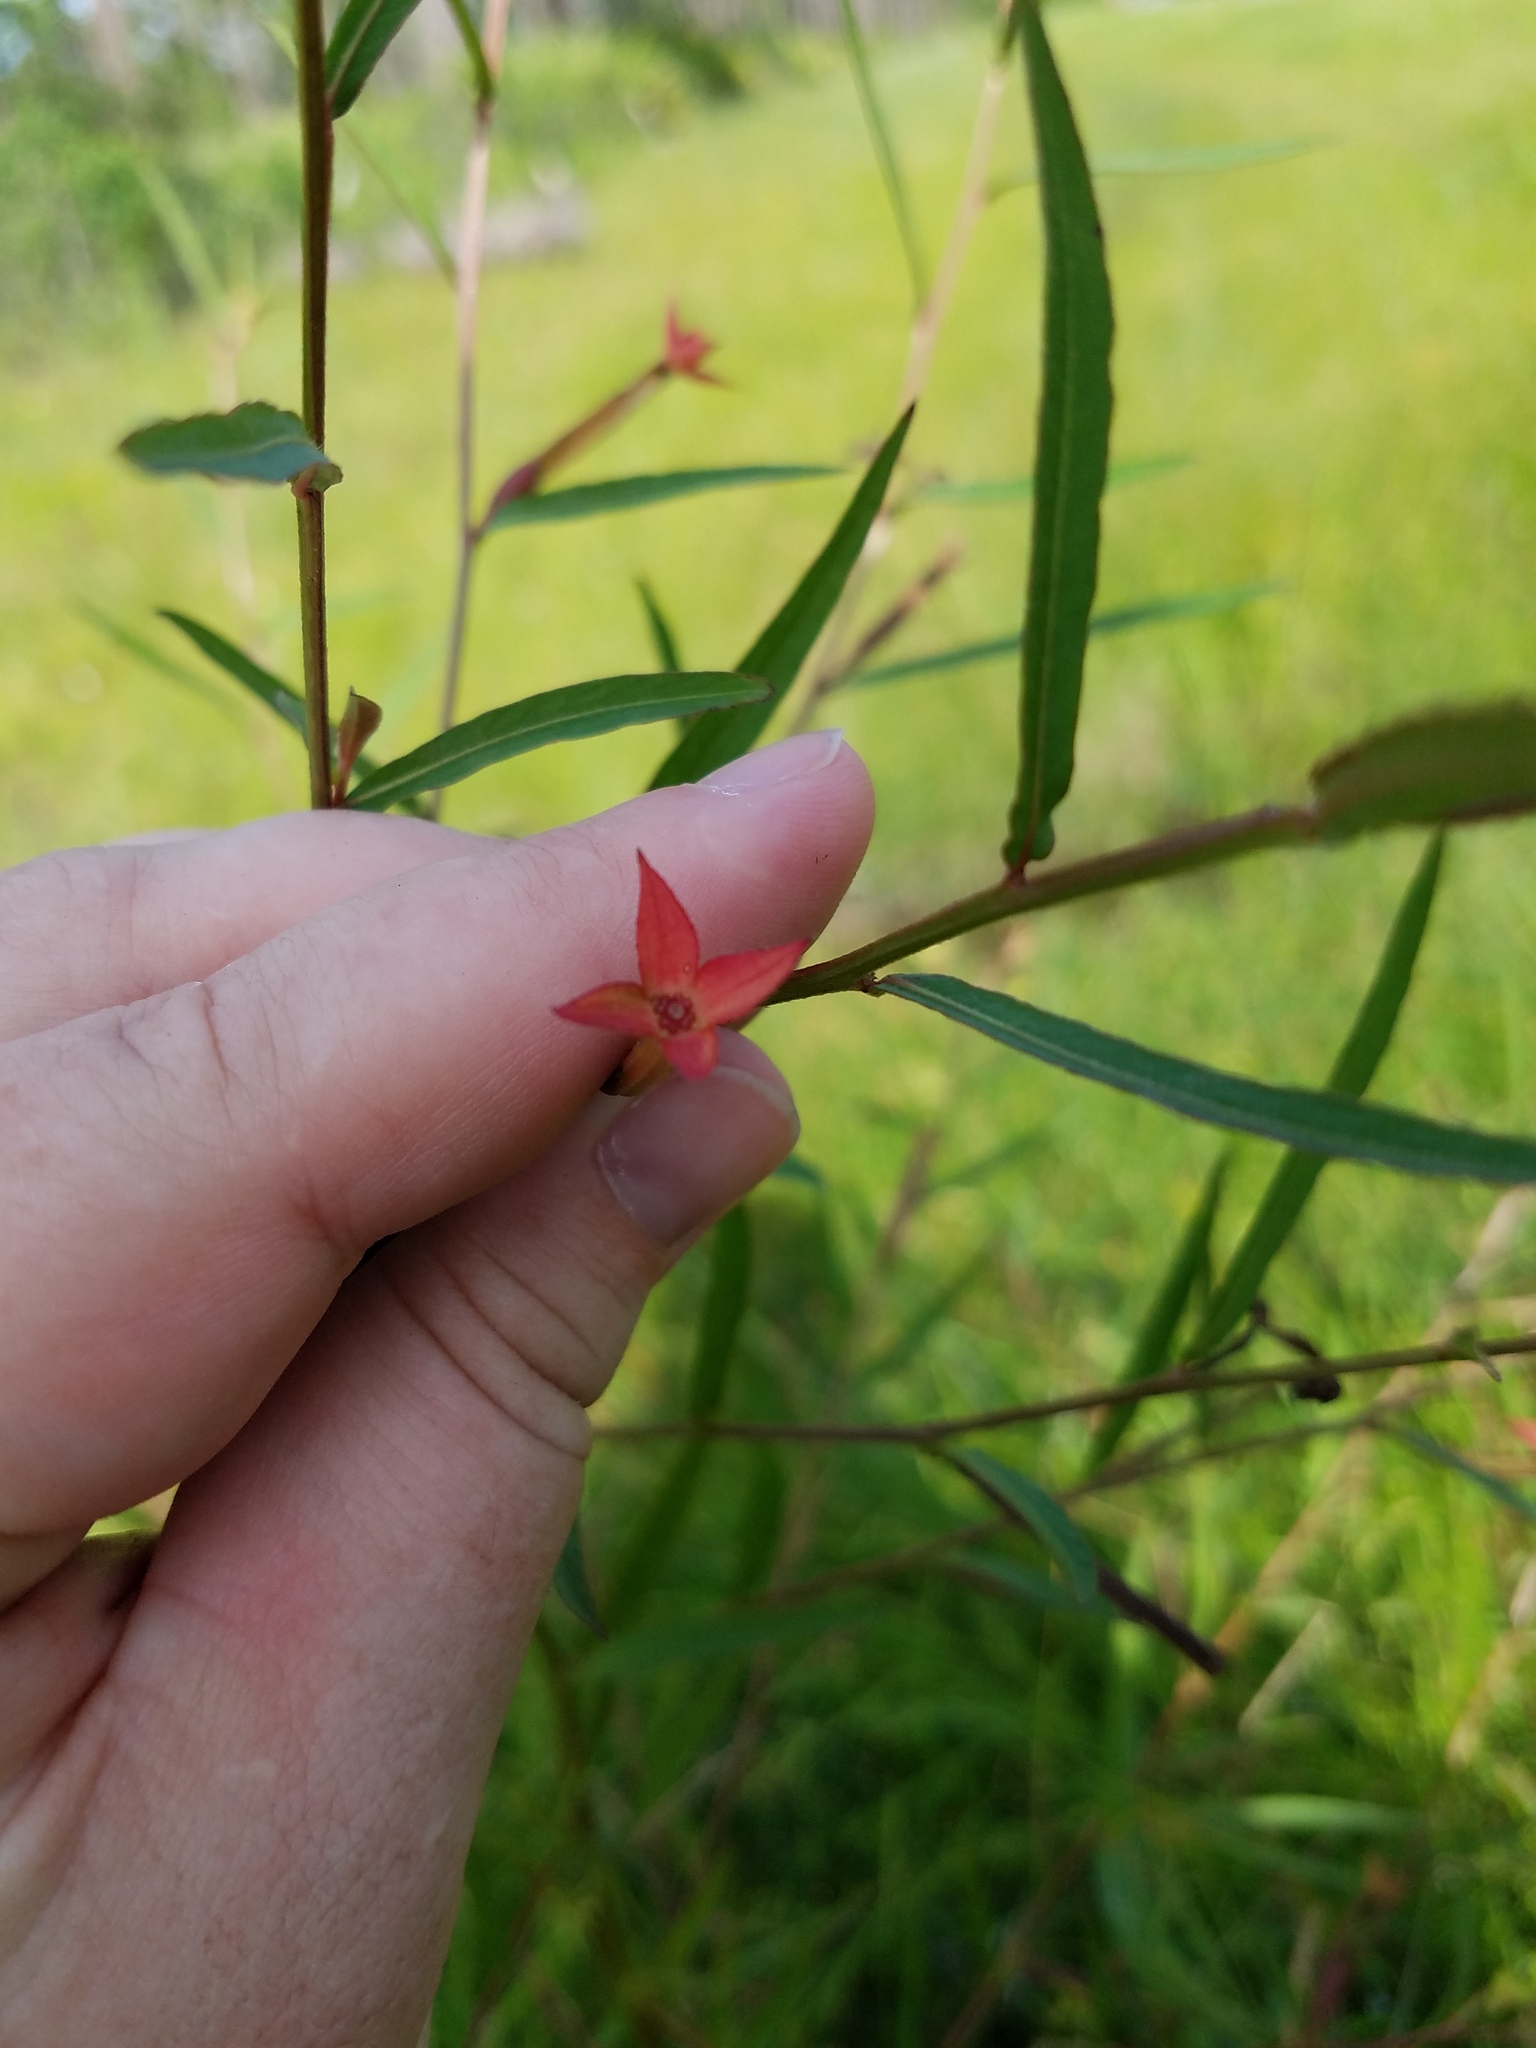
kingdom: Plantae
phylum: Tracheophyta
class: Magnoliopsida
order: Myrtales
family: Onagraceae
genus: Ludwigia
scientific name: Ludwigia decurrens
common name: Winged water-primrose
